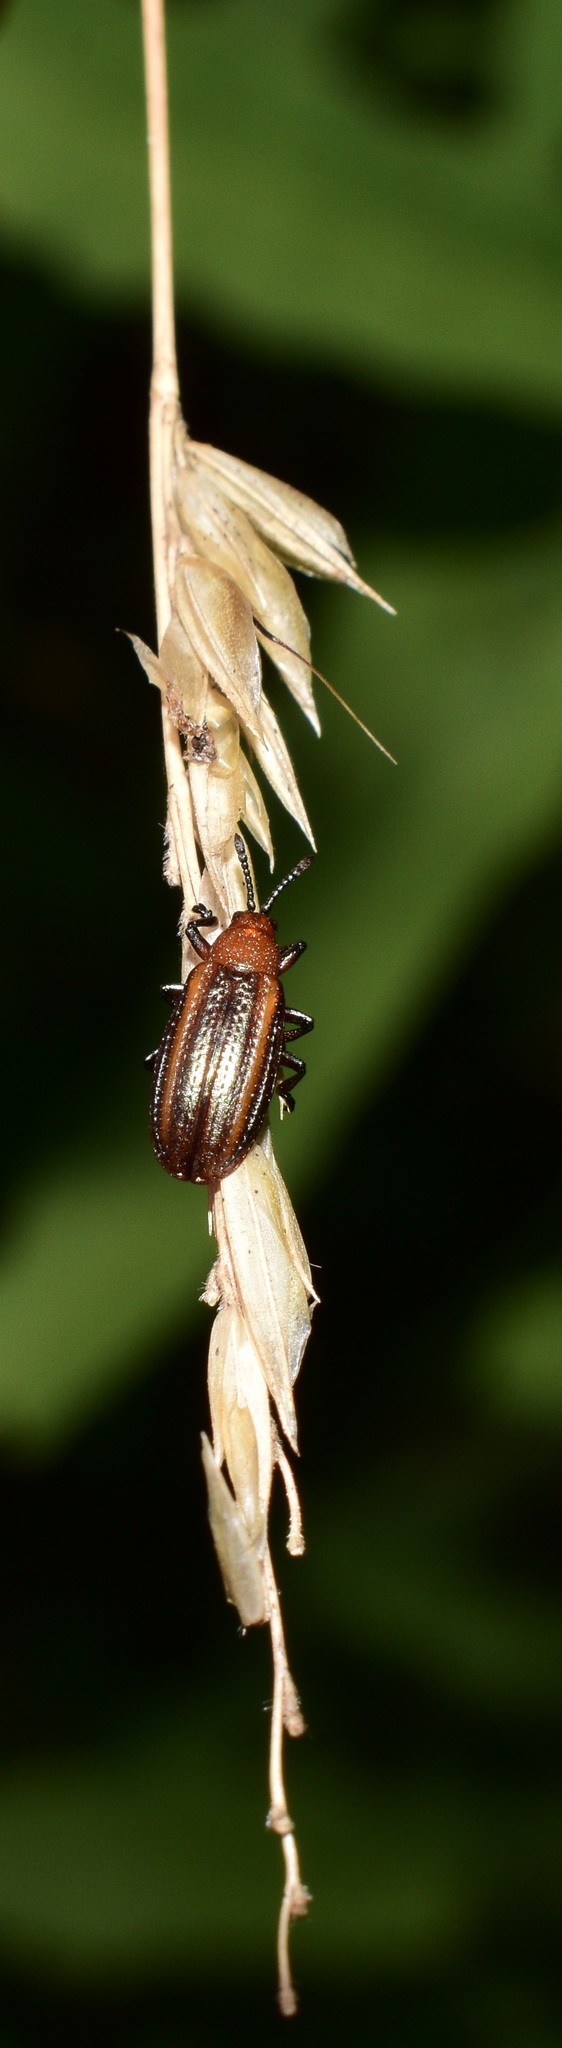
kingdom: Animalia
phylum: Arthropoda
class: Insecta
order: Coleoptera
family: Chrysomelidae
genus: Microrhopala
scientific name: Microrhopala vittata
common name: Goldenrod leaf miner beetle
